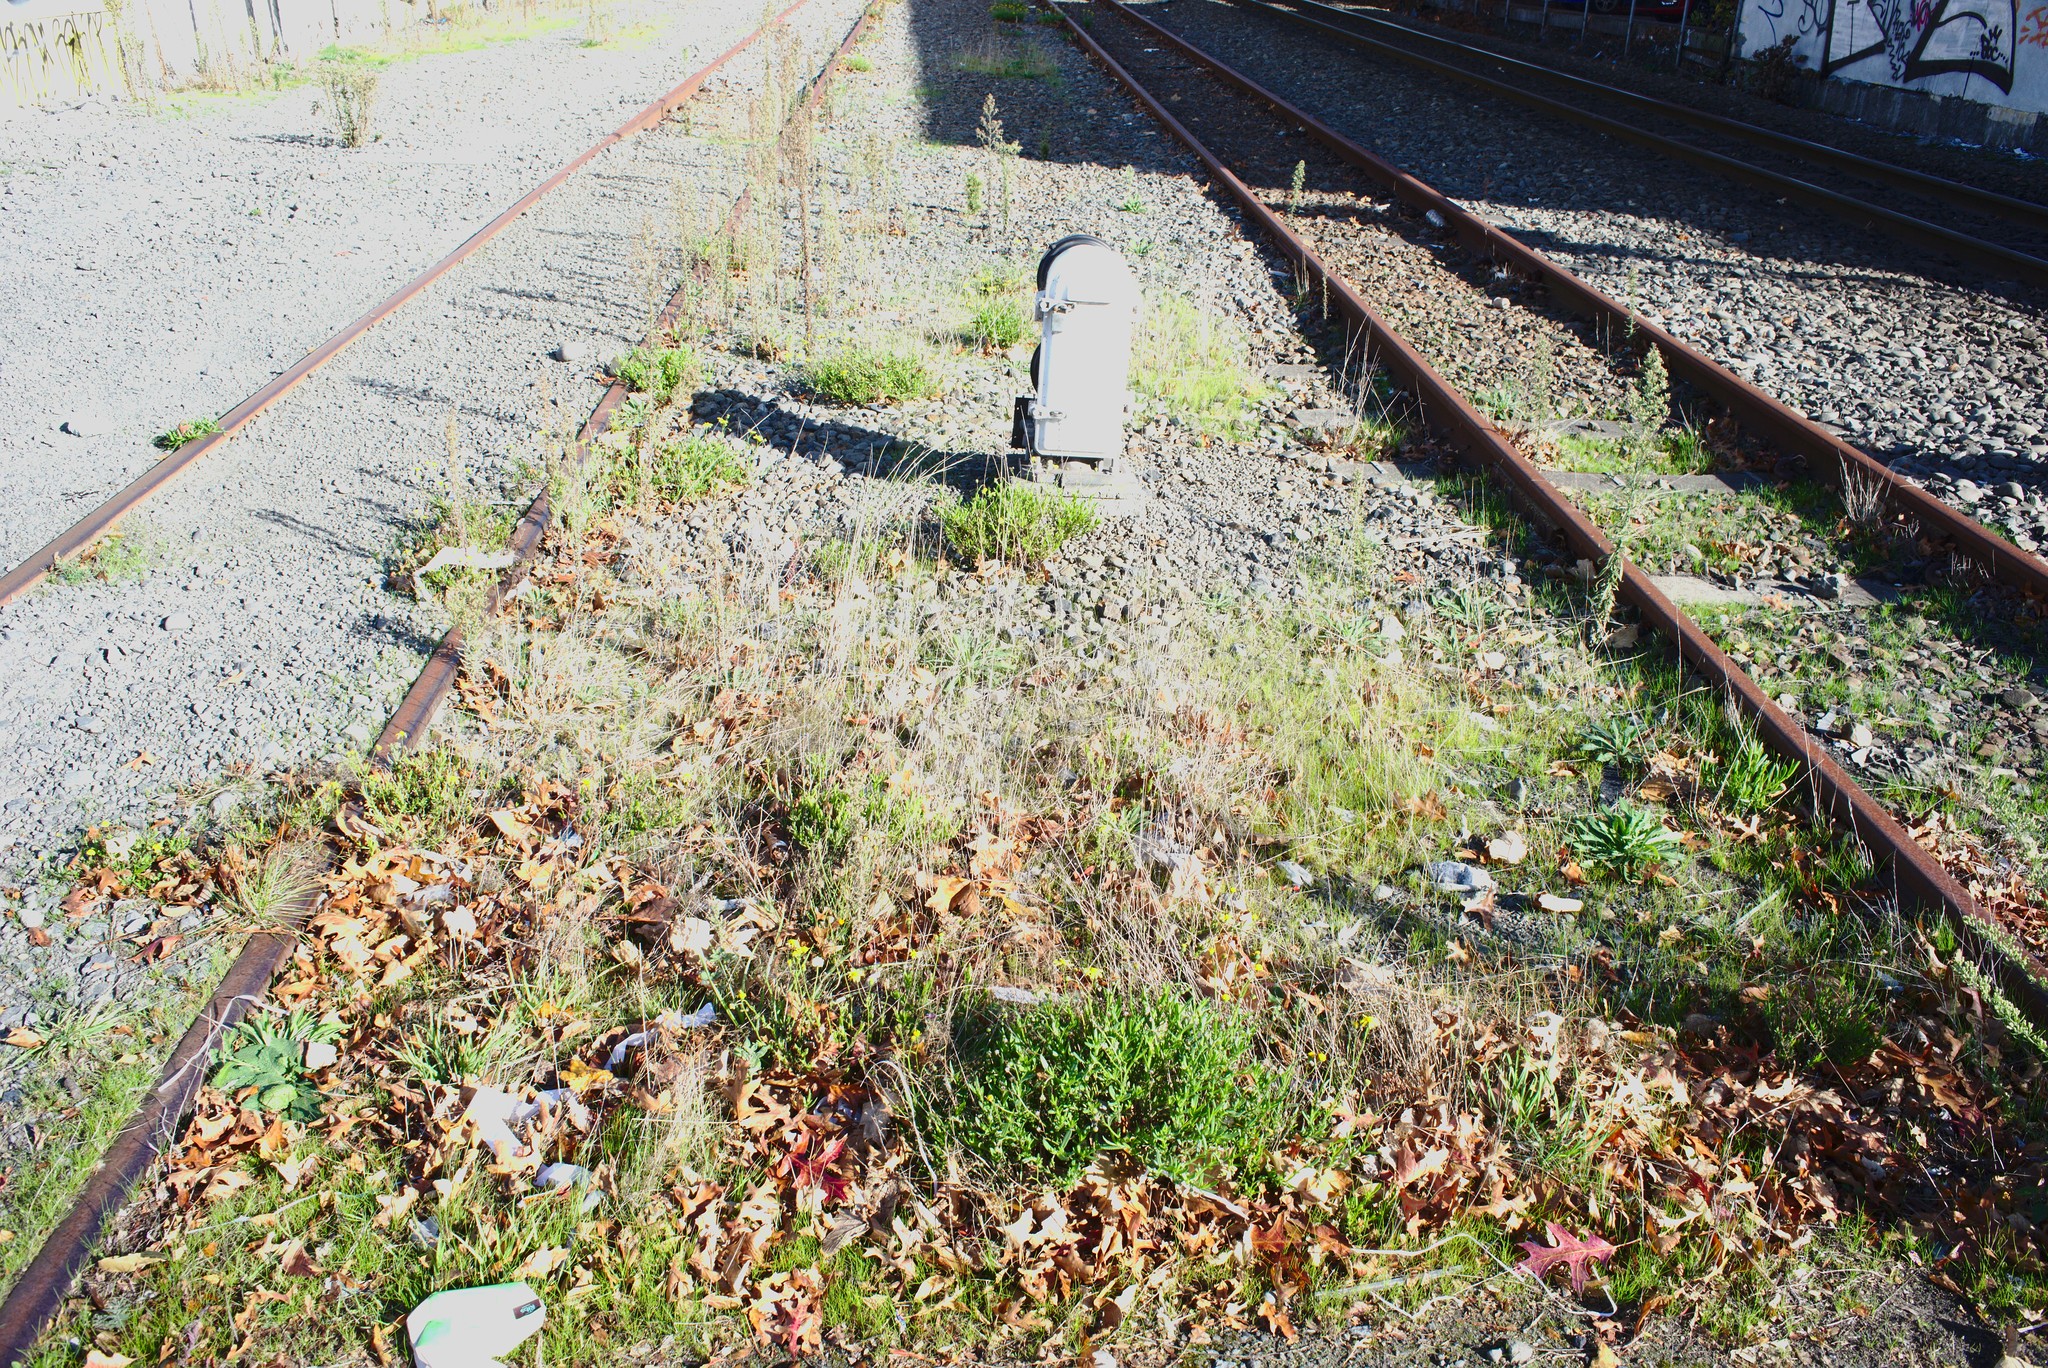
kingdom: Plantae
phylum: Tracheophyta
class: Magnoliopsida
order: Asterales
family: Asteraceae
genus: Senecio
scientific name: Senecio skirrhodon
